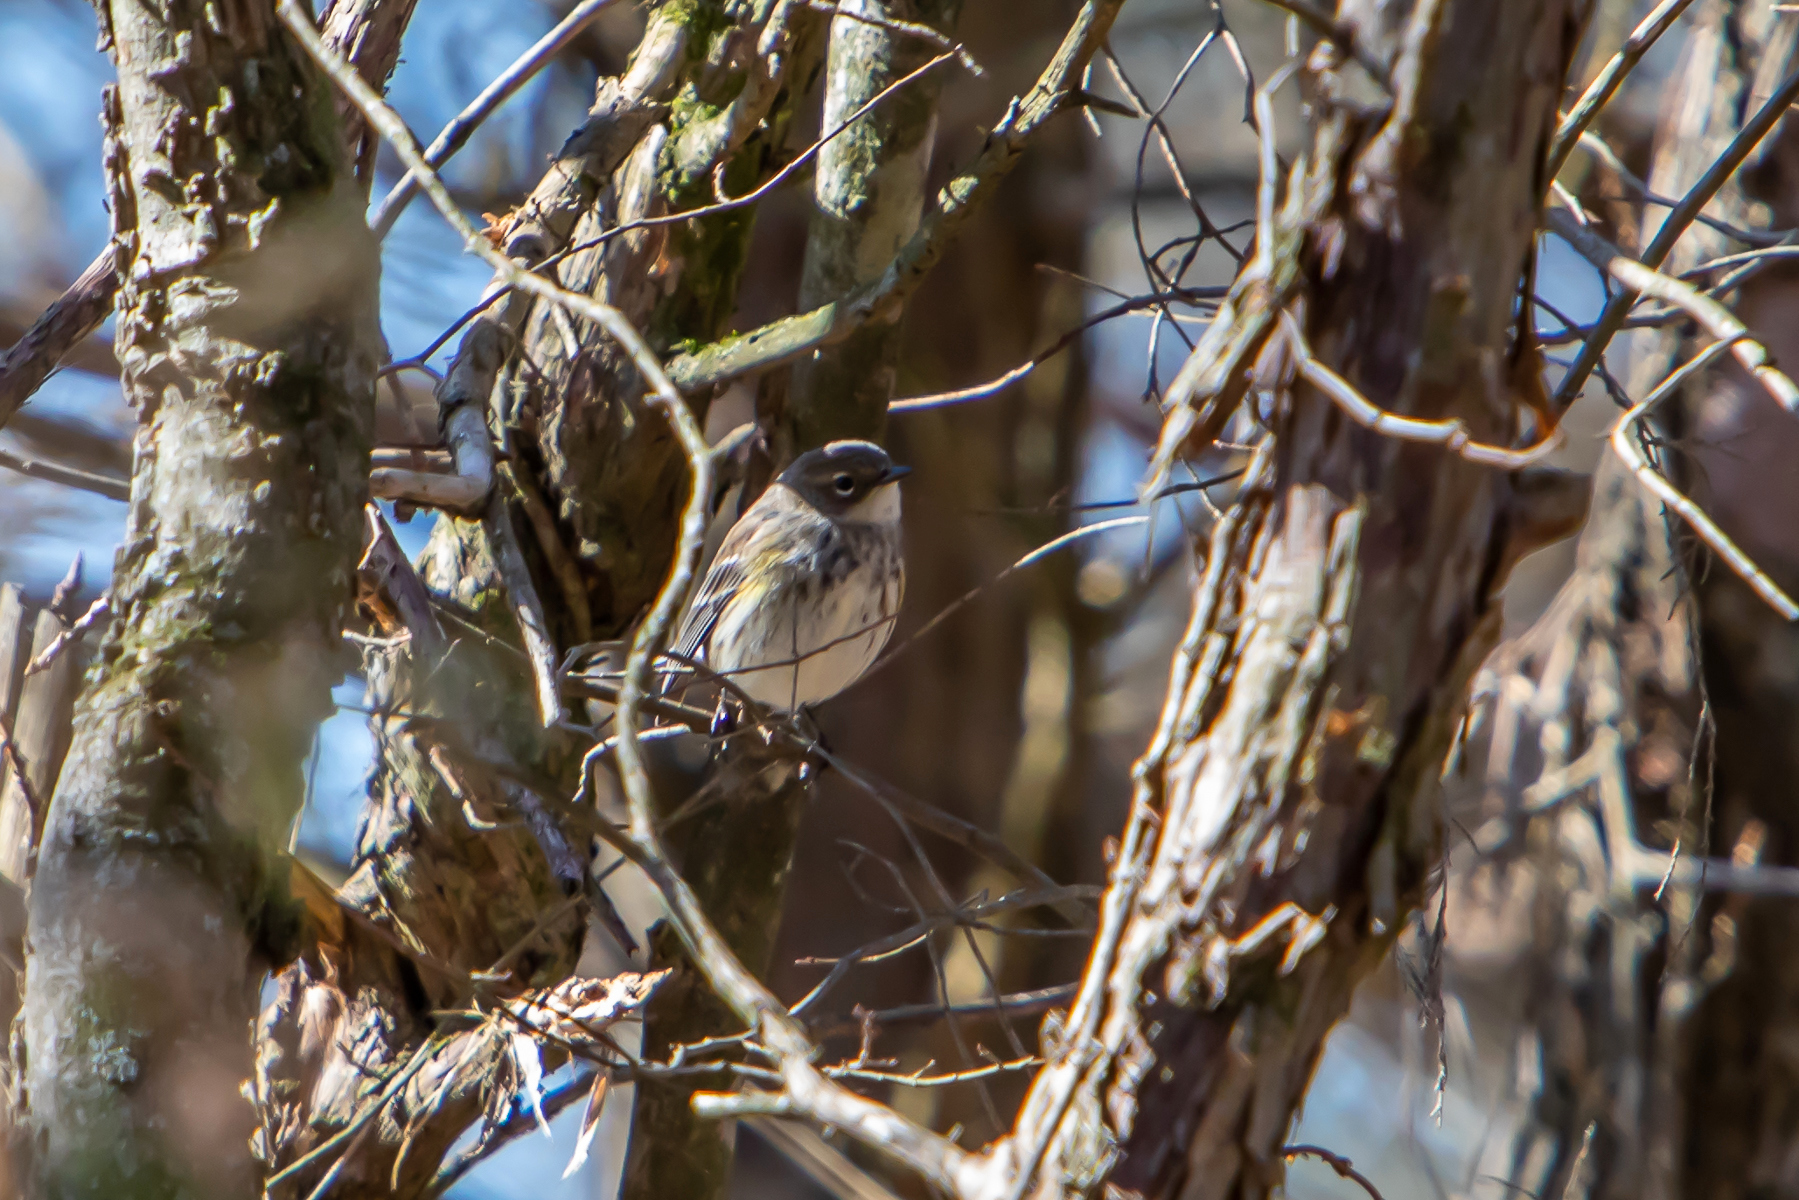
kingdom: Animalia
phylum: Chordata
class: Aves
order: Passeriformes
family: Parulidae
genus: Setophaga
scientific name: Setophaga coronata
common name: Myrtle warbler
